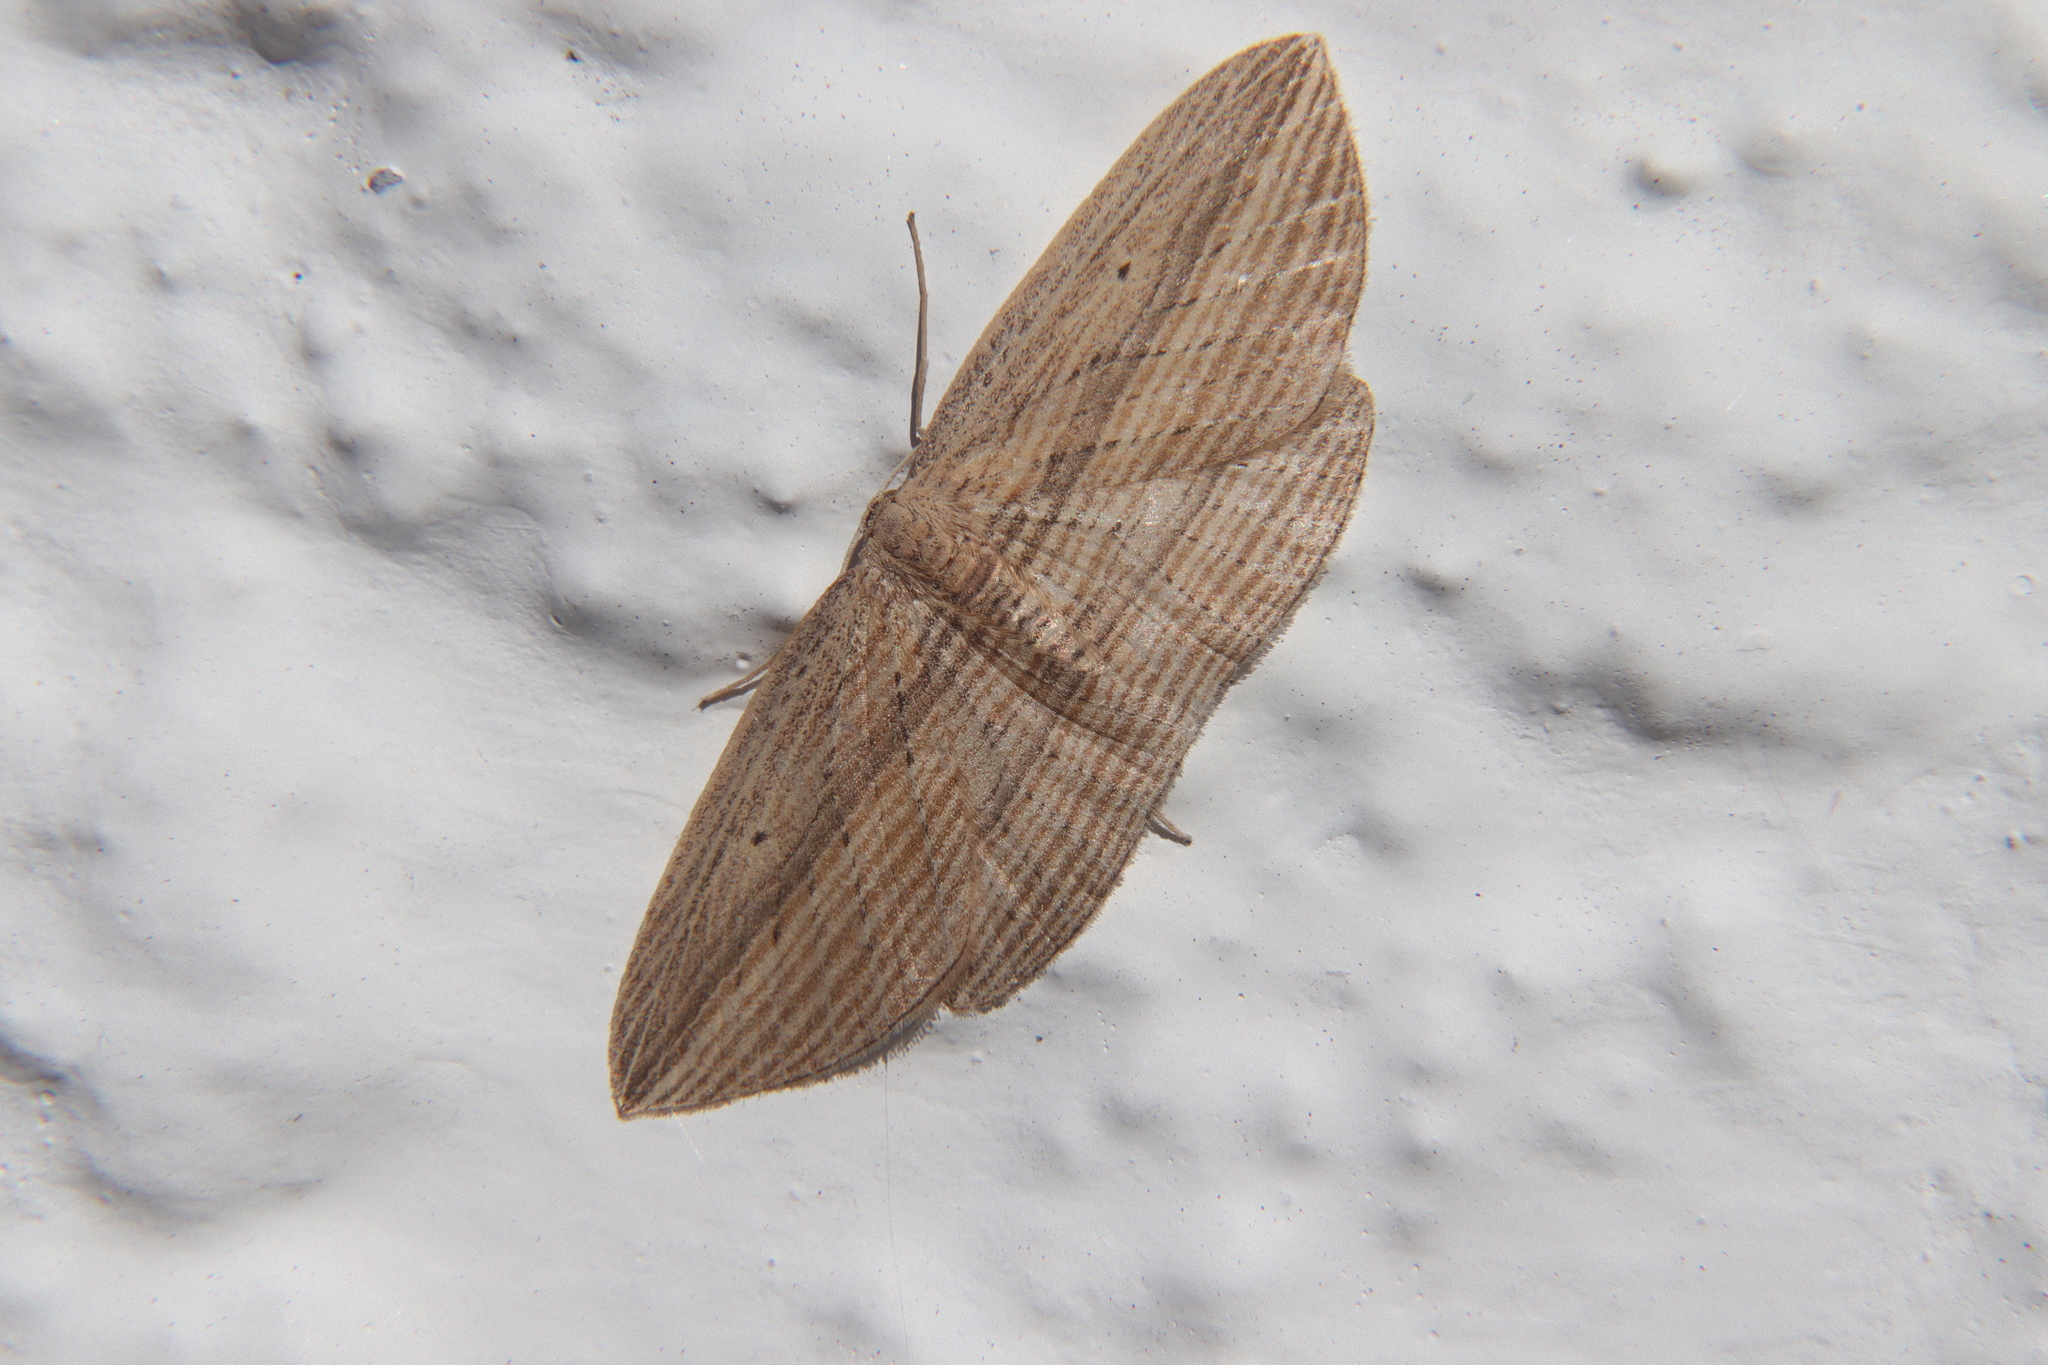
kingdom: Animalia
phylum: Arthropoda
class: Insecta
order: Lepidoptera
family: Geometridae
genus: Epiphryne
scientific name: Epiphryne verriculata
